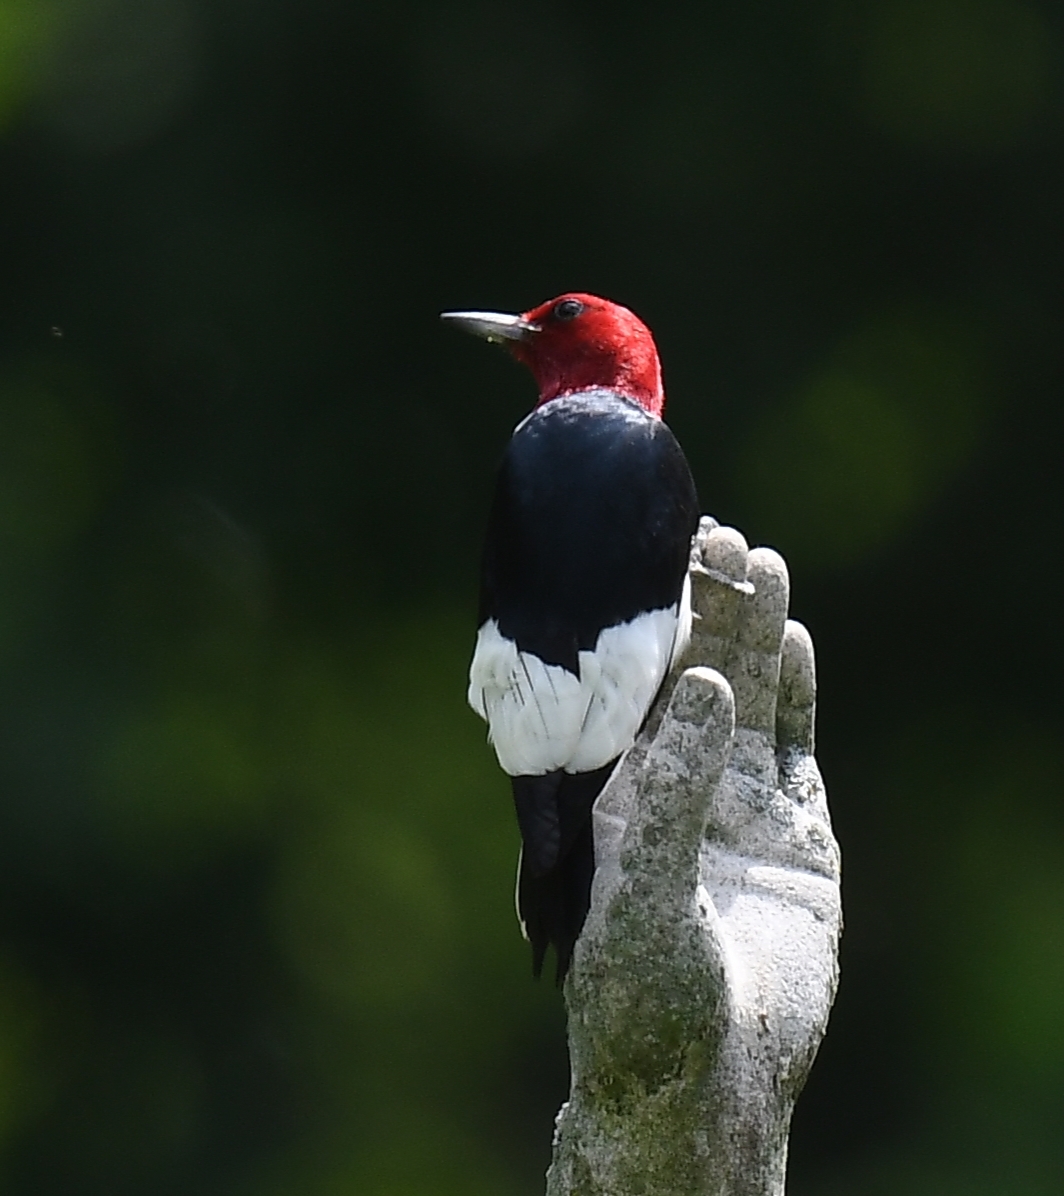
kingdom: Animalia
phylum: Chordata
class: Aves
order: Piciformes
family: Picidae
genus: Melanerpes
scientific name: Melanerpes erythrocephalus
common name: Red-headed woodpecker
